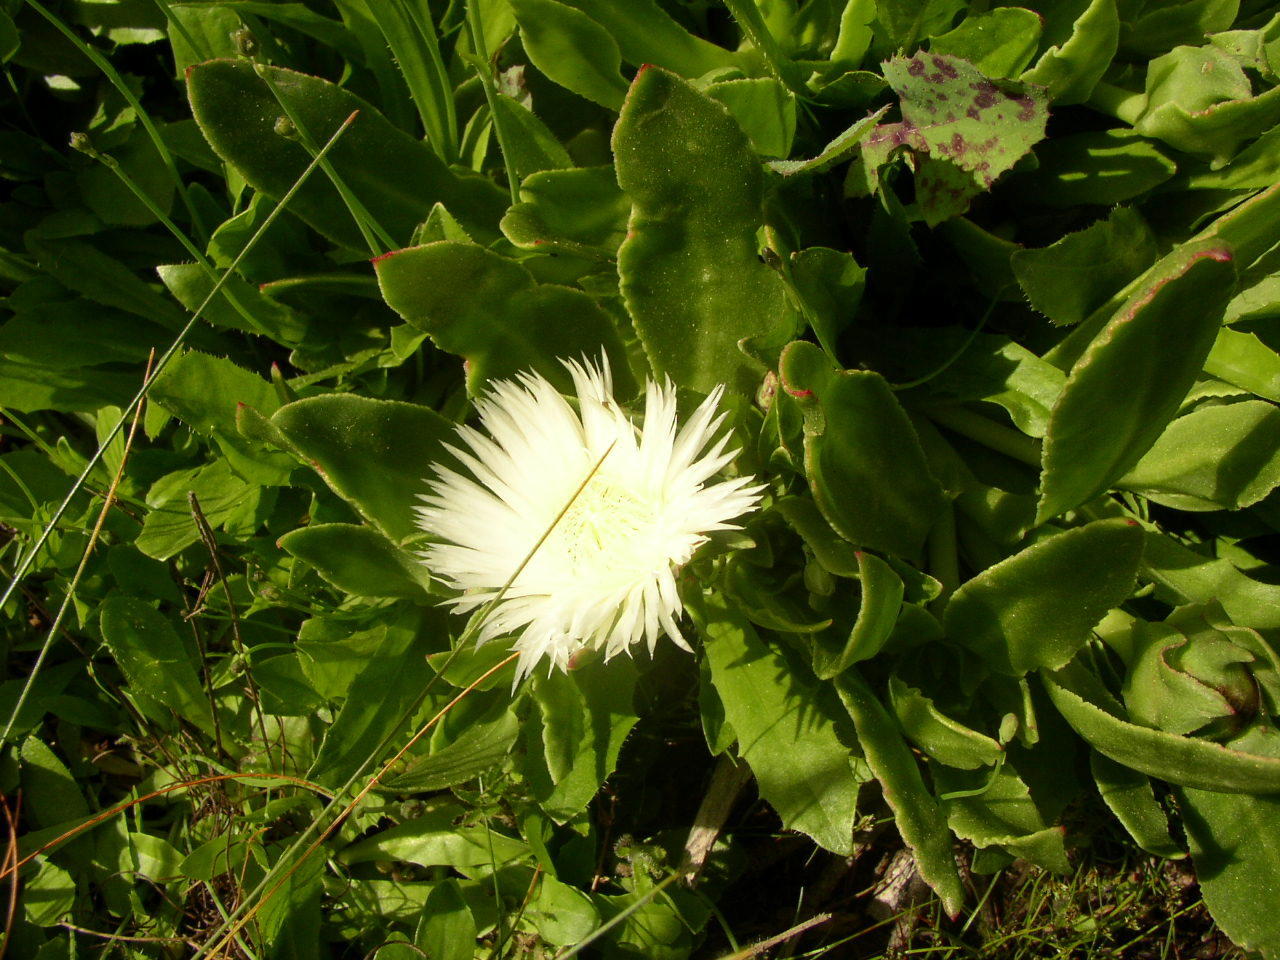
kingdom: Plantae
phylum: Tracheophyta
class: Magnoliopsida
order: Caryophyllales
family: Aizoaceae
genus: Skiatophytum
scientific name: Skiatophytum tripolium
